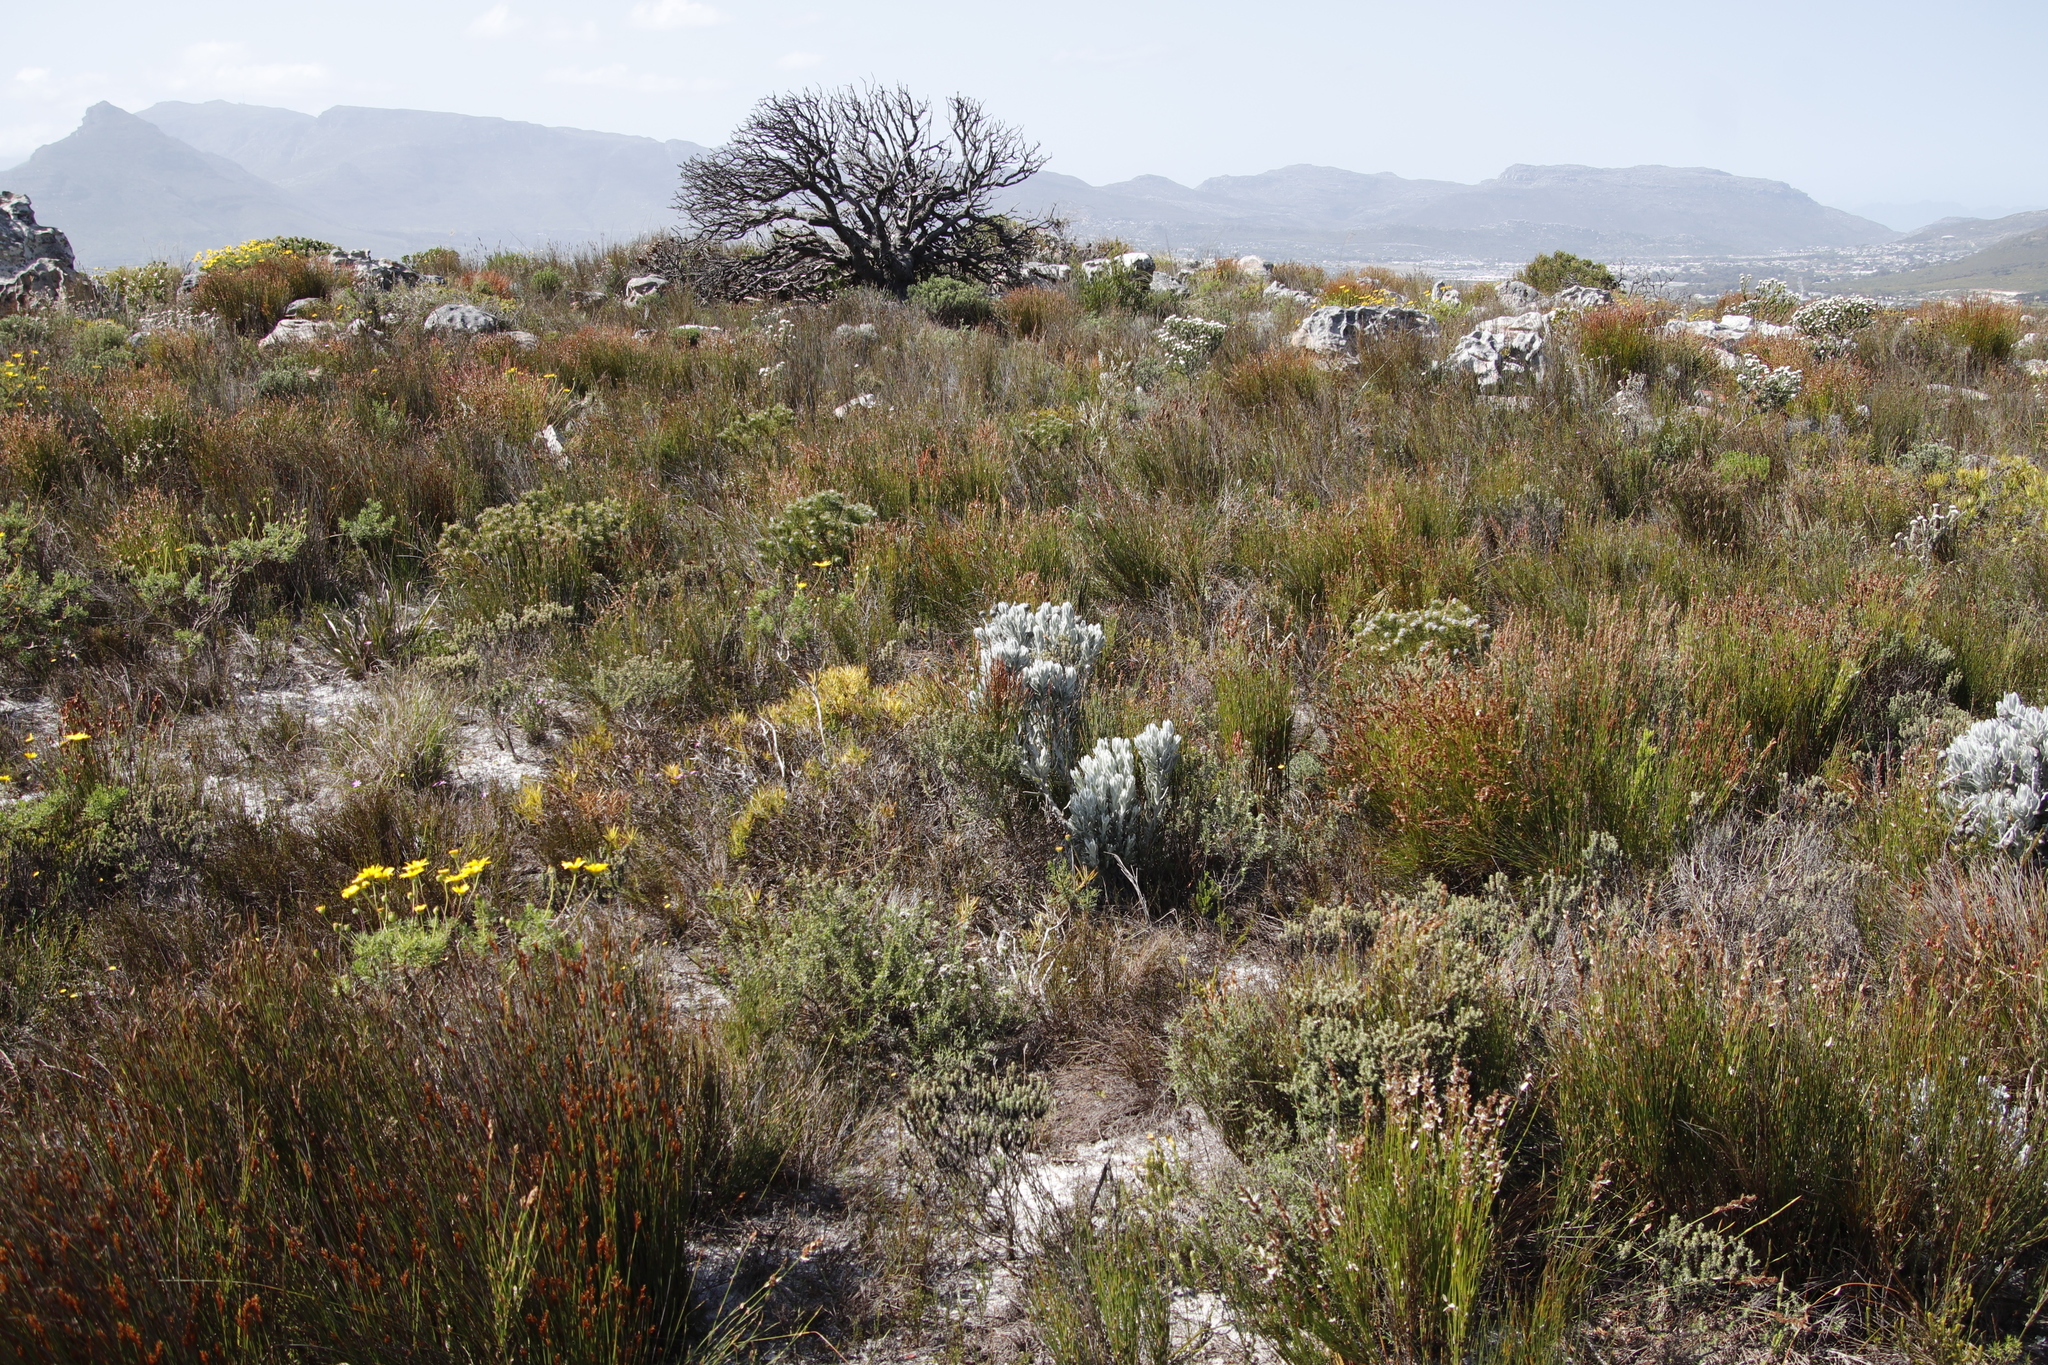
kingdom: Plantae
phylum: Tracheophyta
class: Magnoliopsida
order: Asterales
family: Asteraceae
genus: Syncarpha
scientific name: Syncarpha vestita
